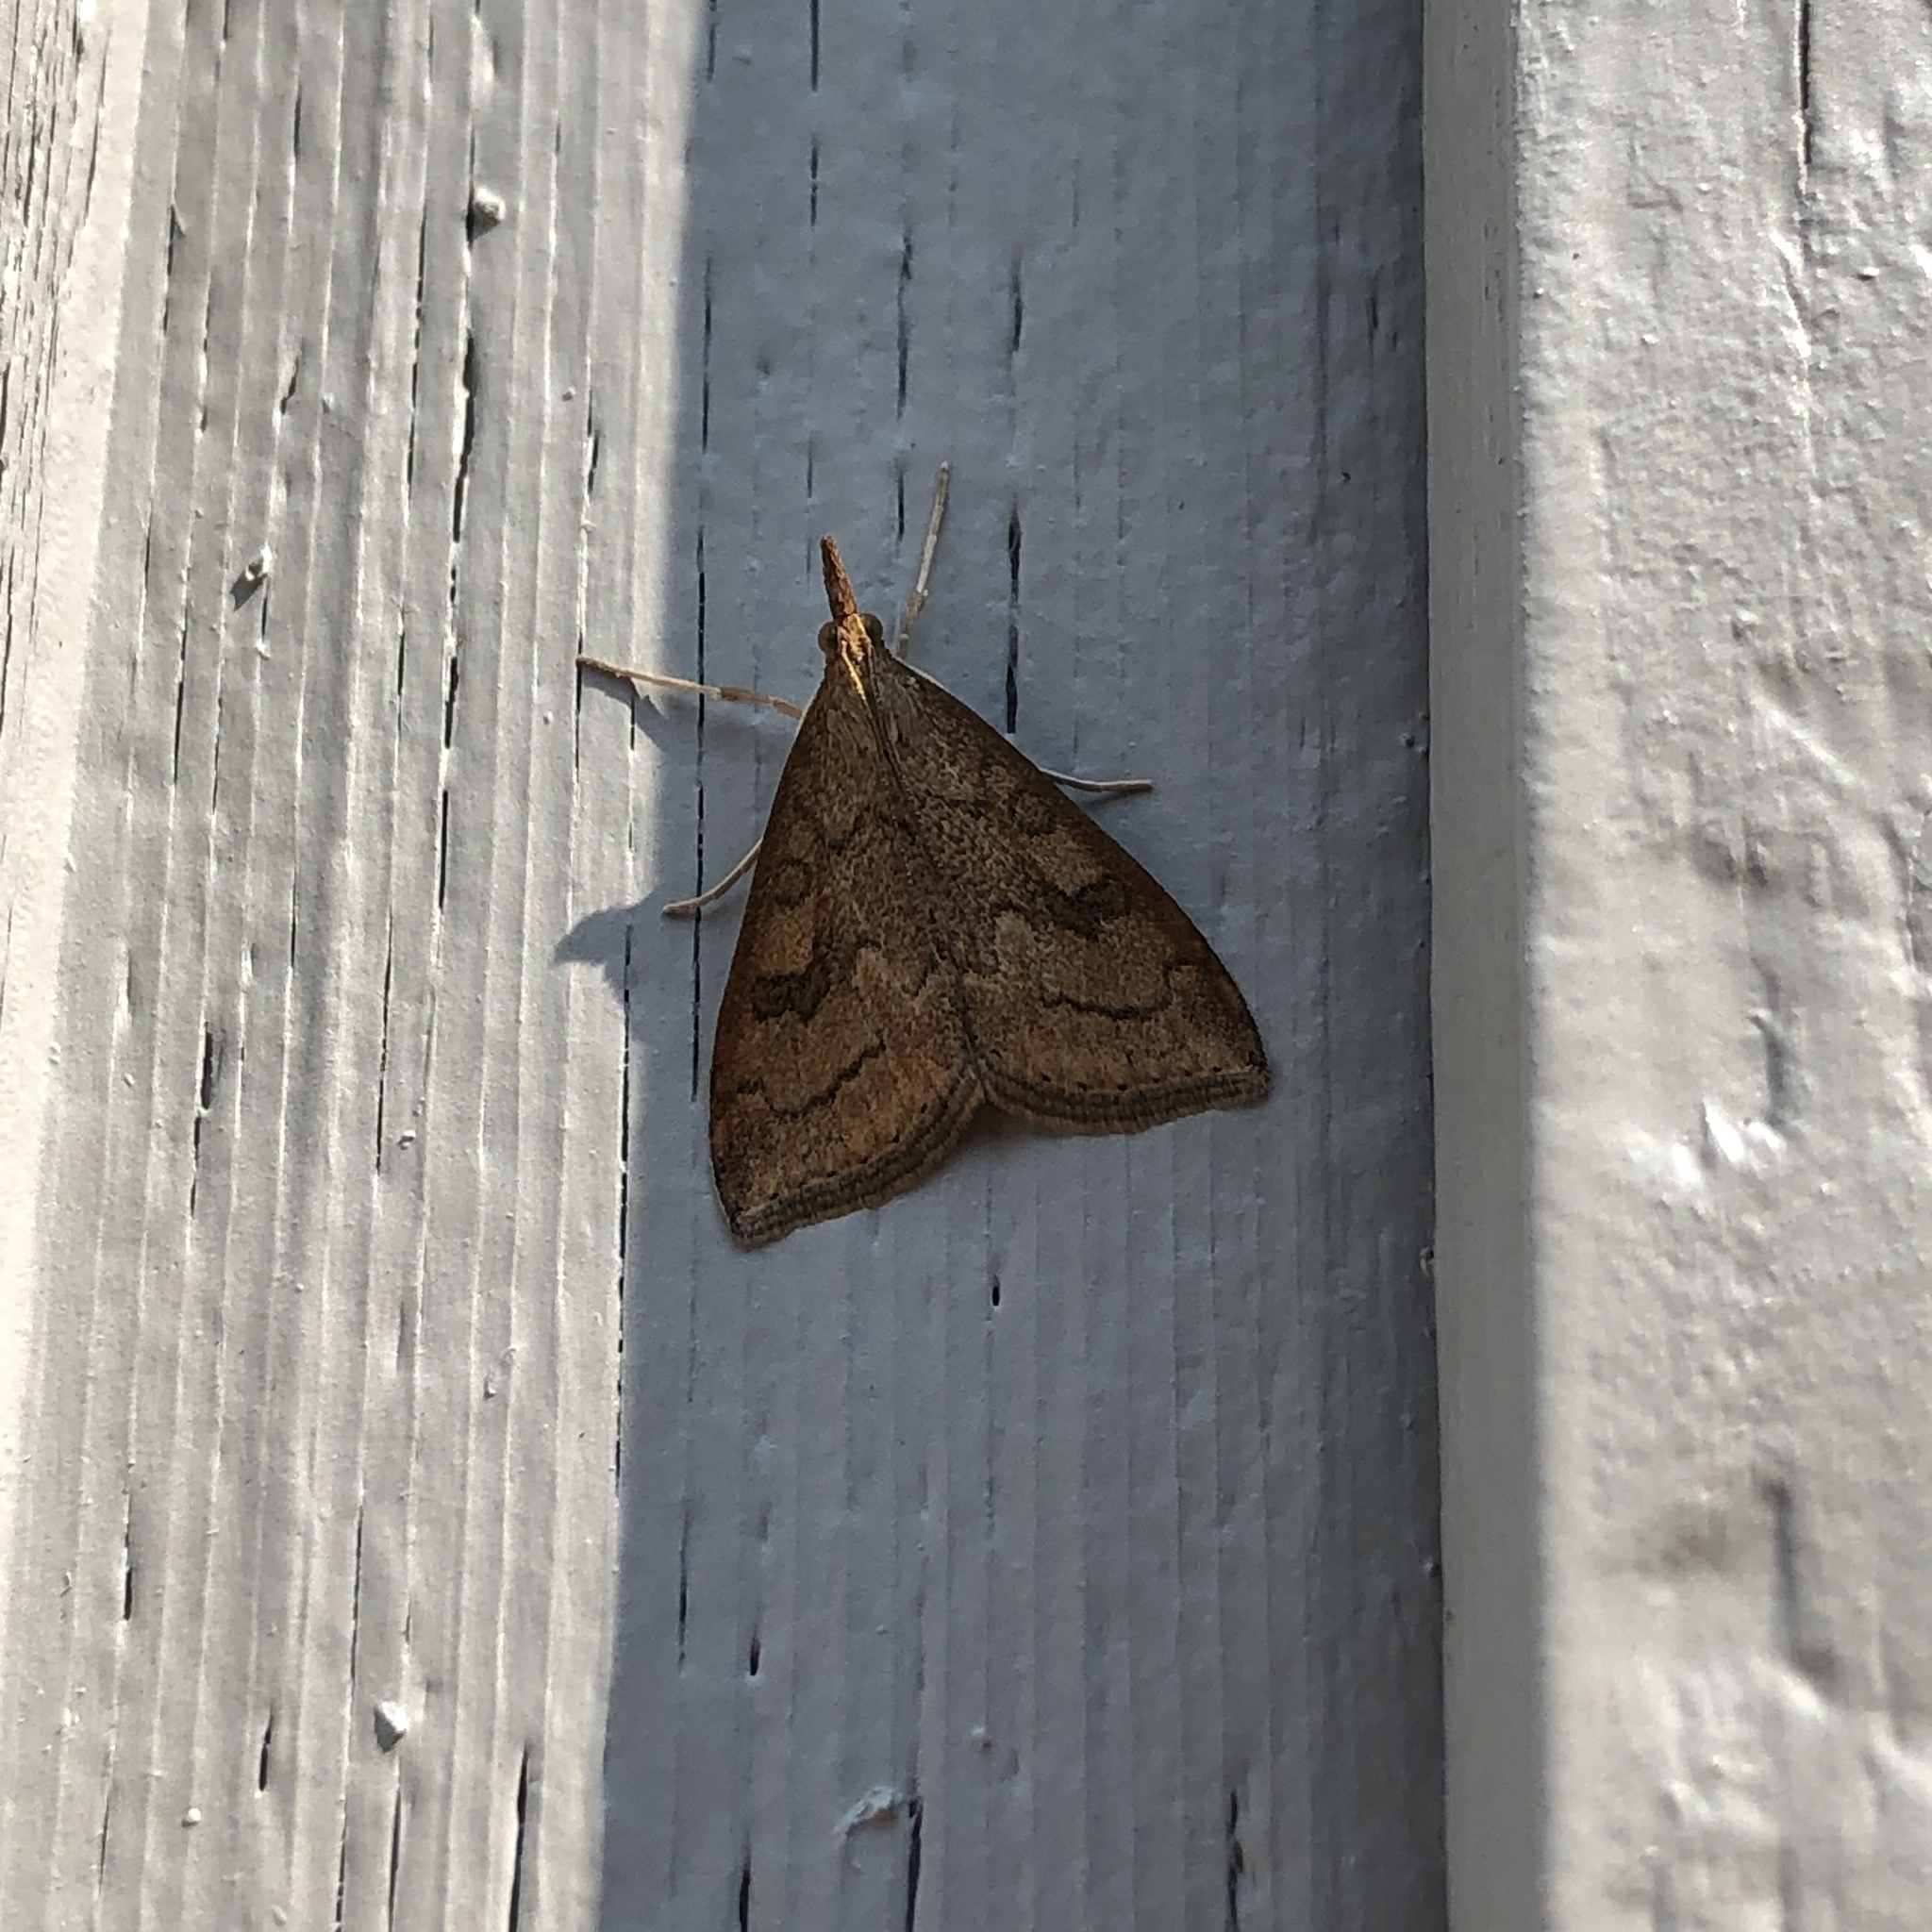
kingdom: Animalia
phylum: Arthropoda
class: Insecta
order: Lepidoptera
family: Crambidae
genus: Udea
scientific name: Udea profundalis
